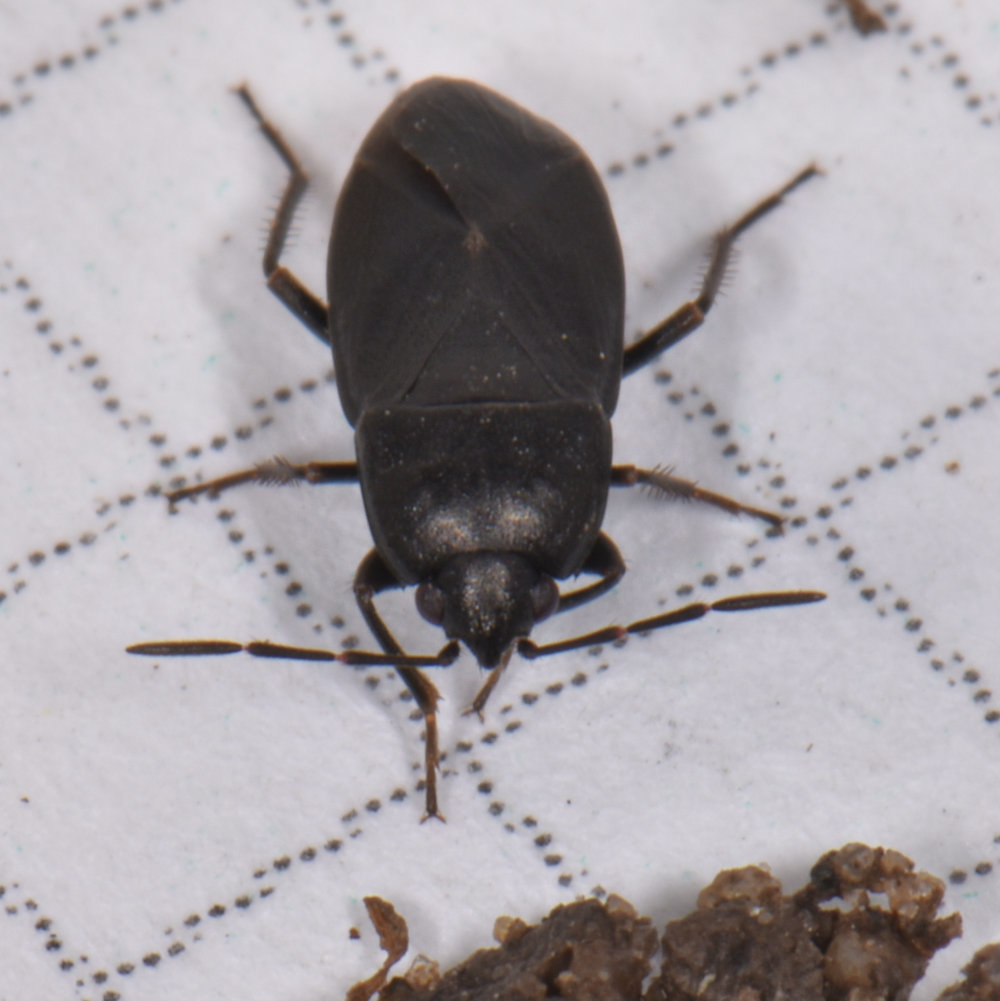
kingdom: Animalia
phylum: Arthropoda
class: Insecta
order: Hemiptera
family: Rhyparochromidae
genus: Atrazonotus
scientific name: Atrazonotus umbrosus
